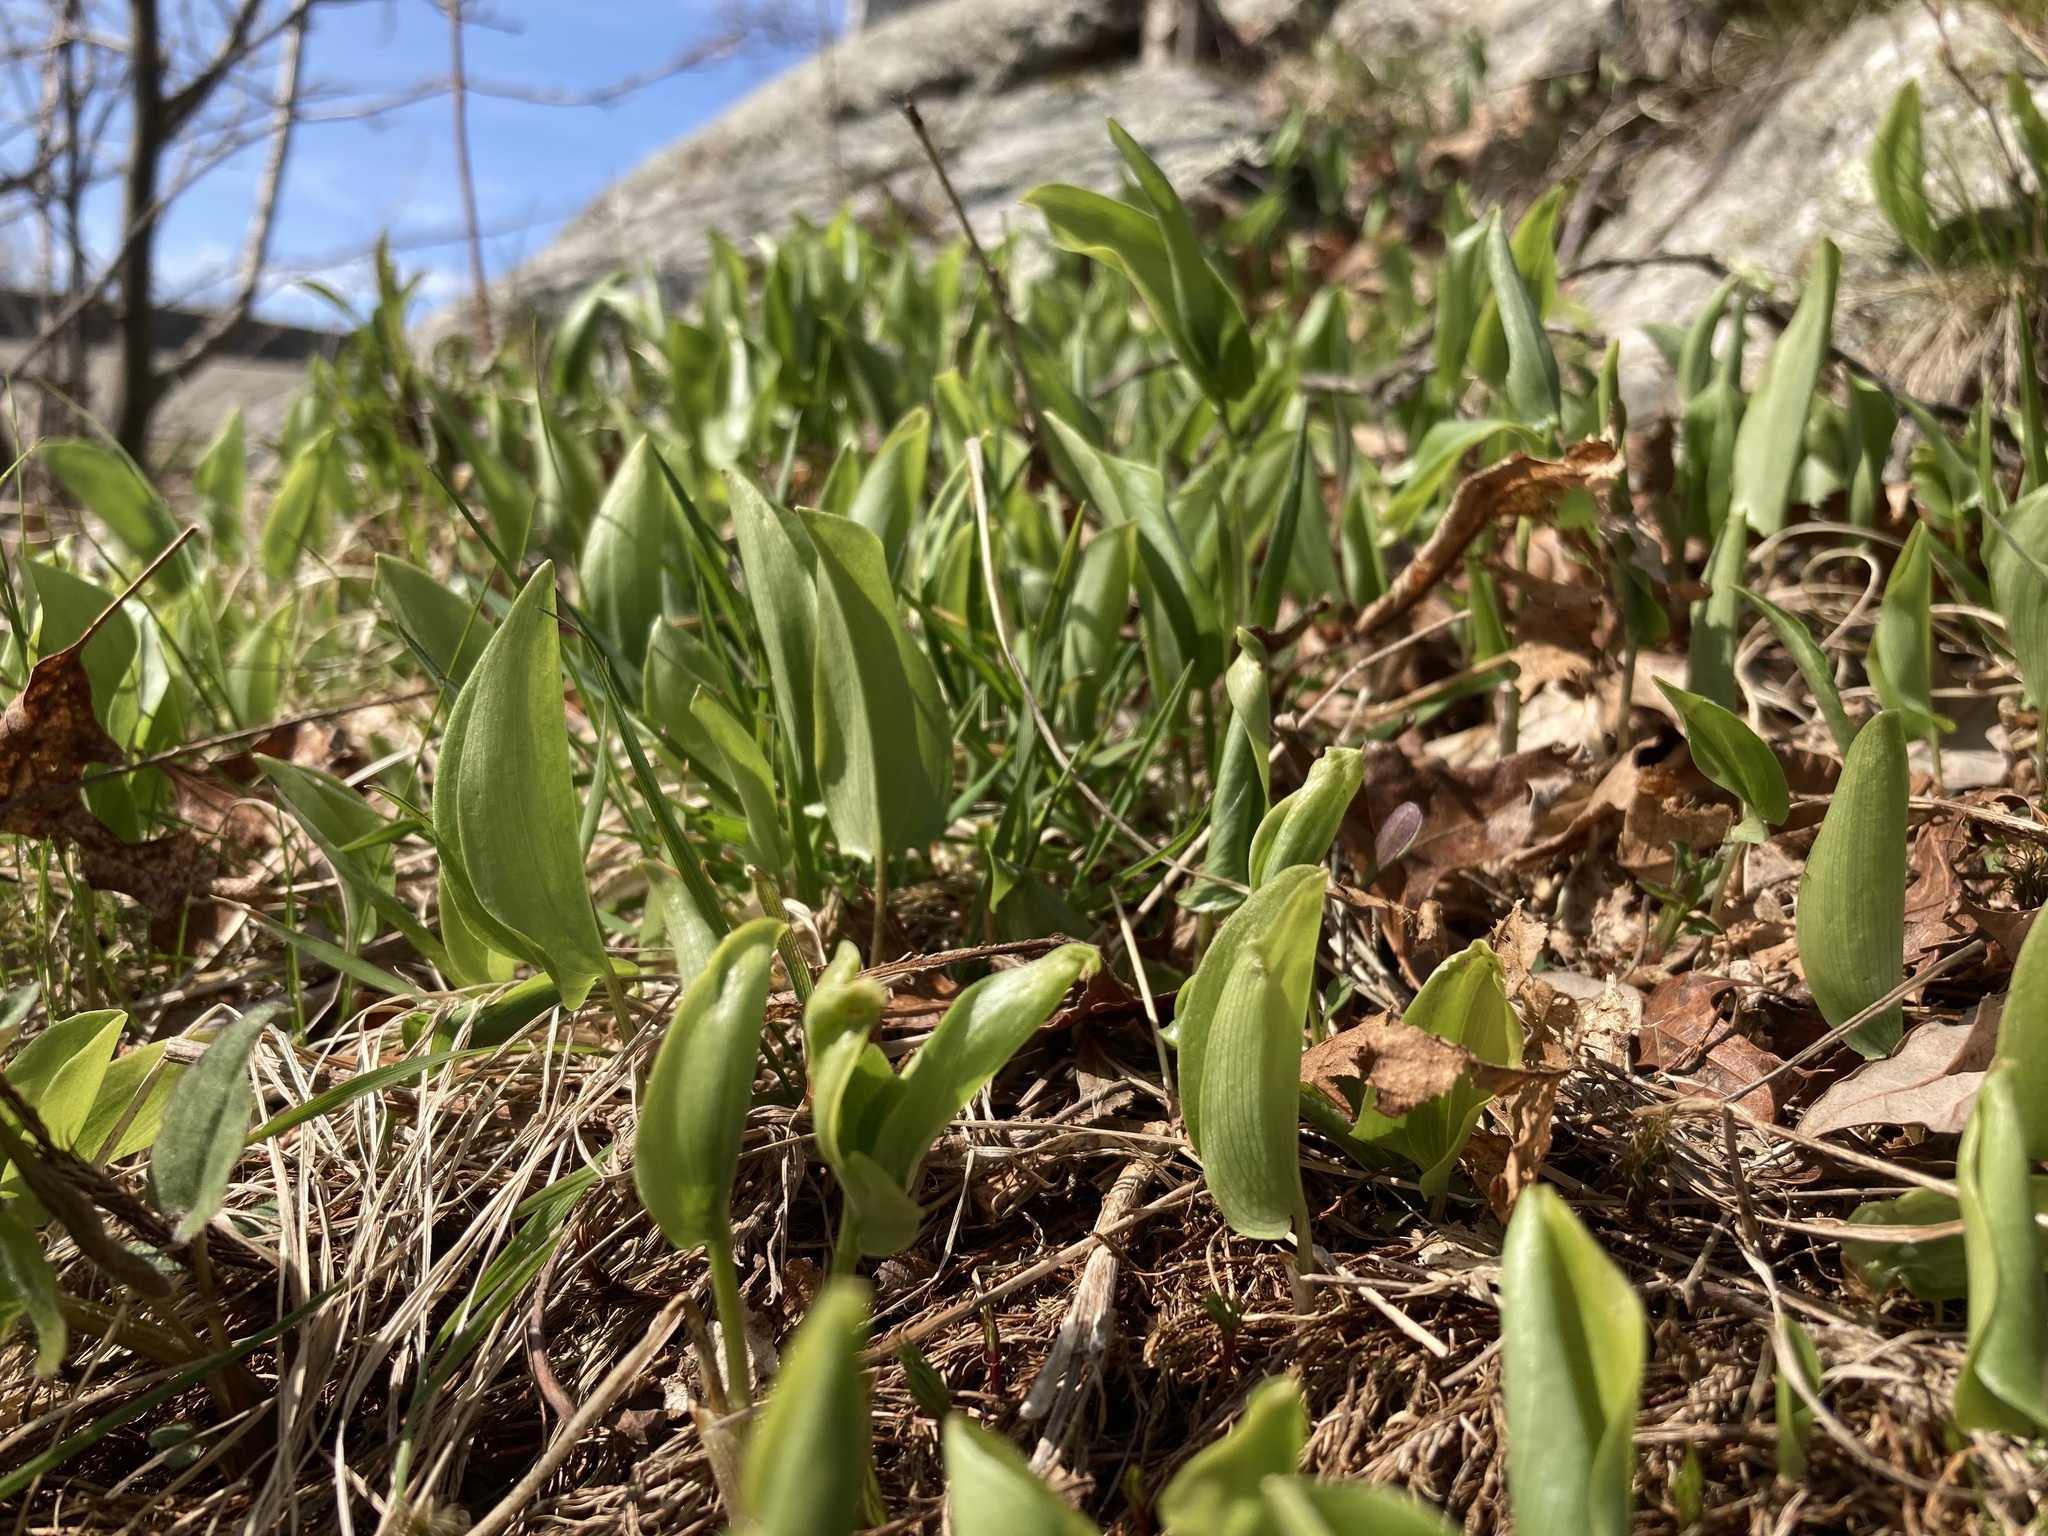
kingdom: Plantae
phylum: Tracheophyta
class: Liliopsida
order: Asparagales
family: Asparagaceae
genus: Maianthemum
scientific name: Maianthemum canadense
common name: False lily-of-the-valley
